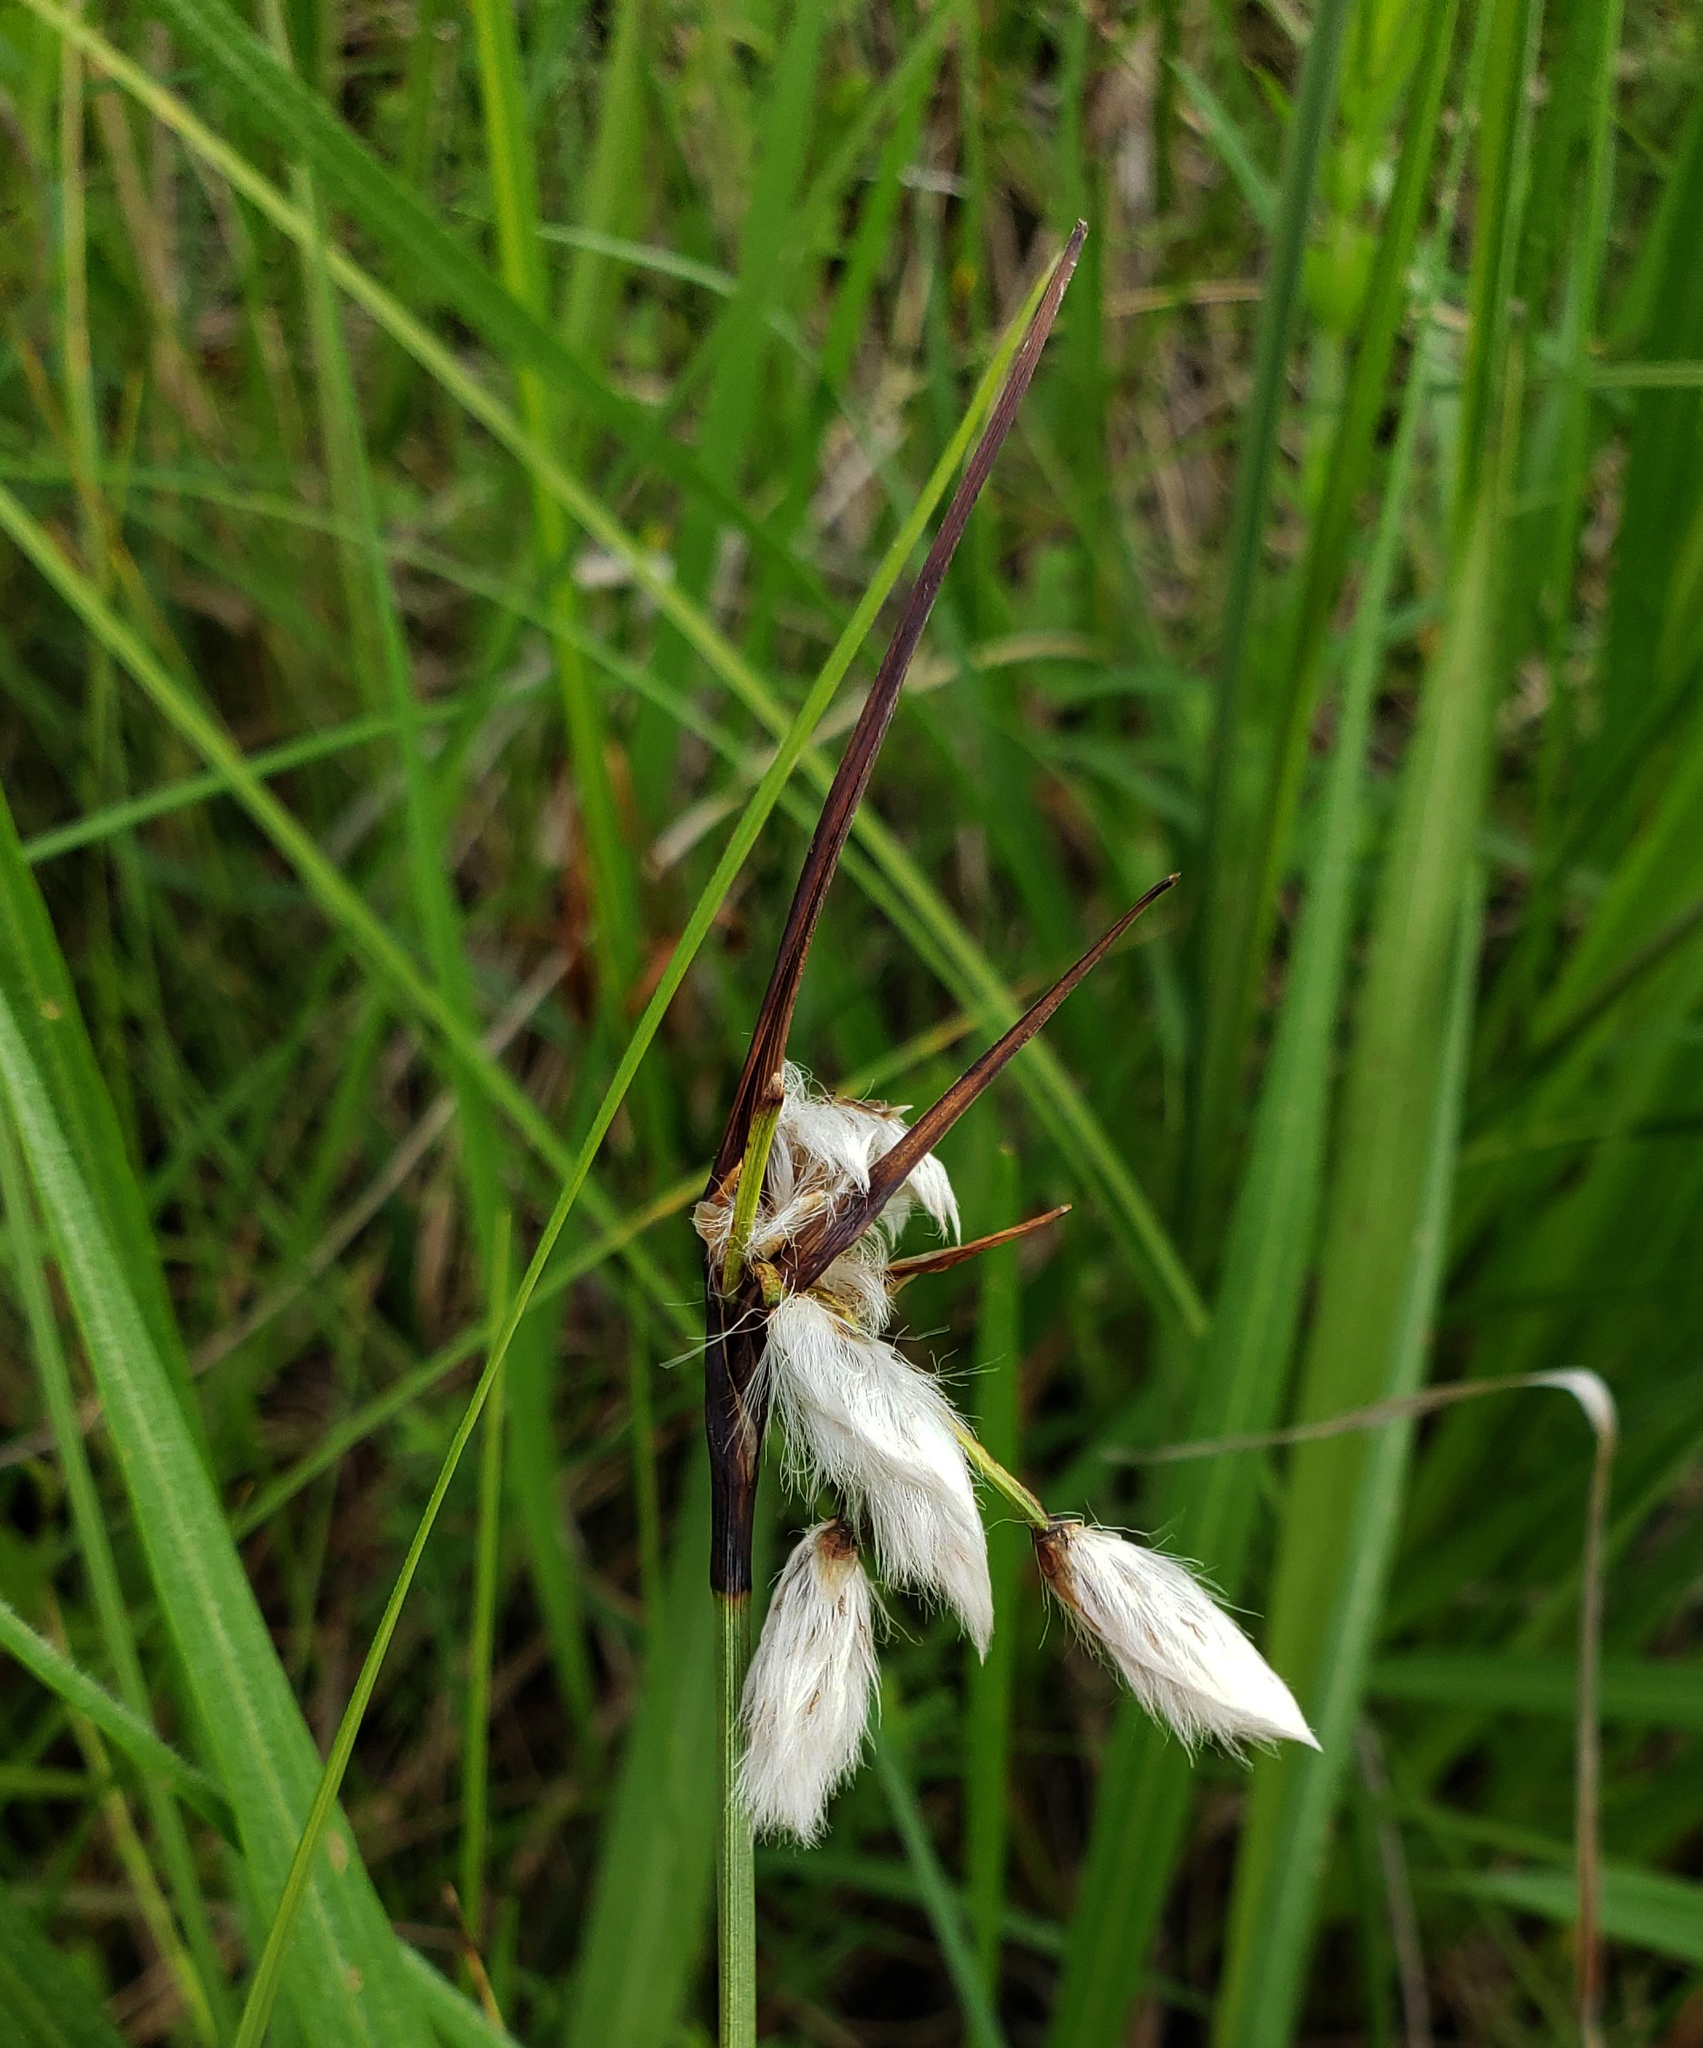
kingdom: Plantae
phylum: Tracheophyta
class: Liliopsida
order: Poales
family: Cyperaceae
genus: Eriophorum
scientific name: Eriophorum angustifolium
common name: Common cottongrass
